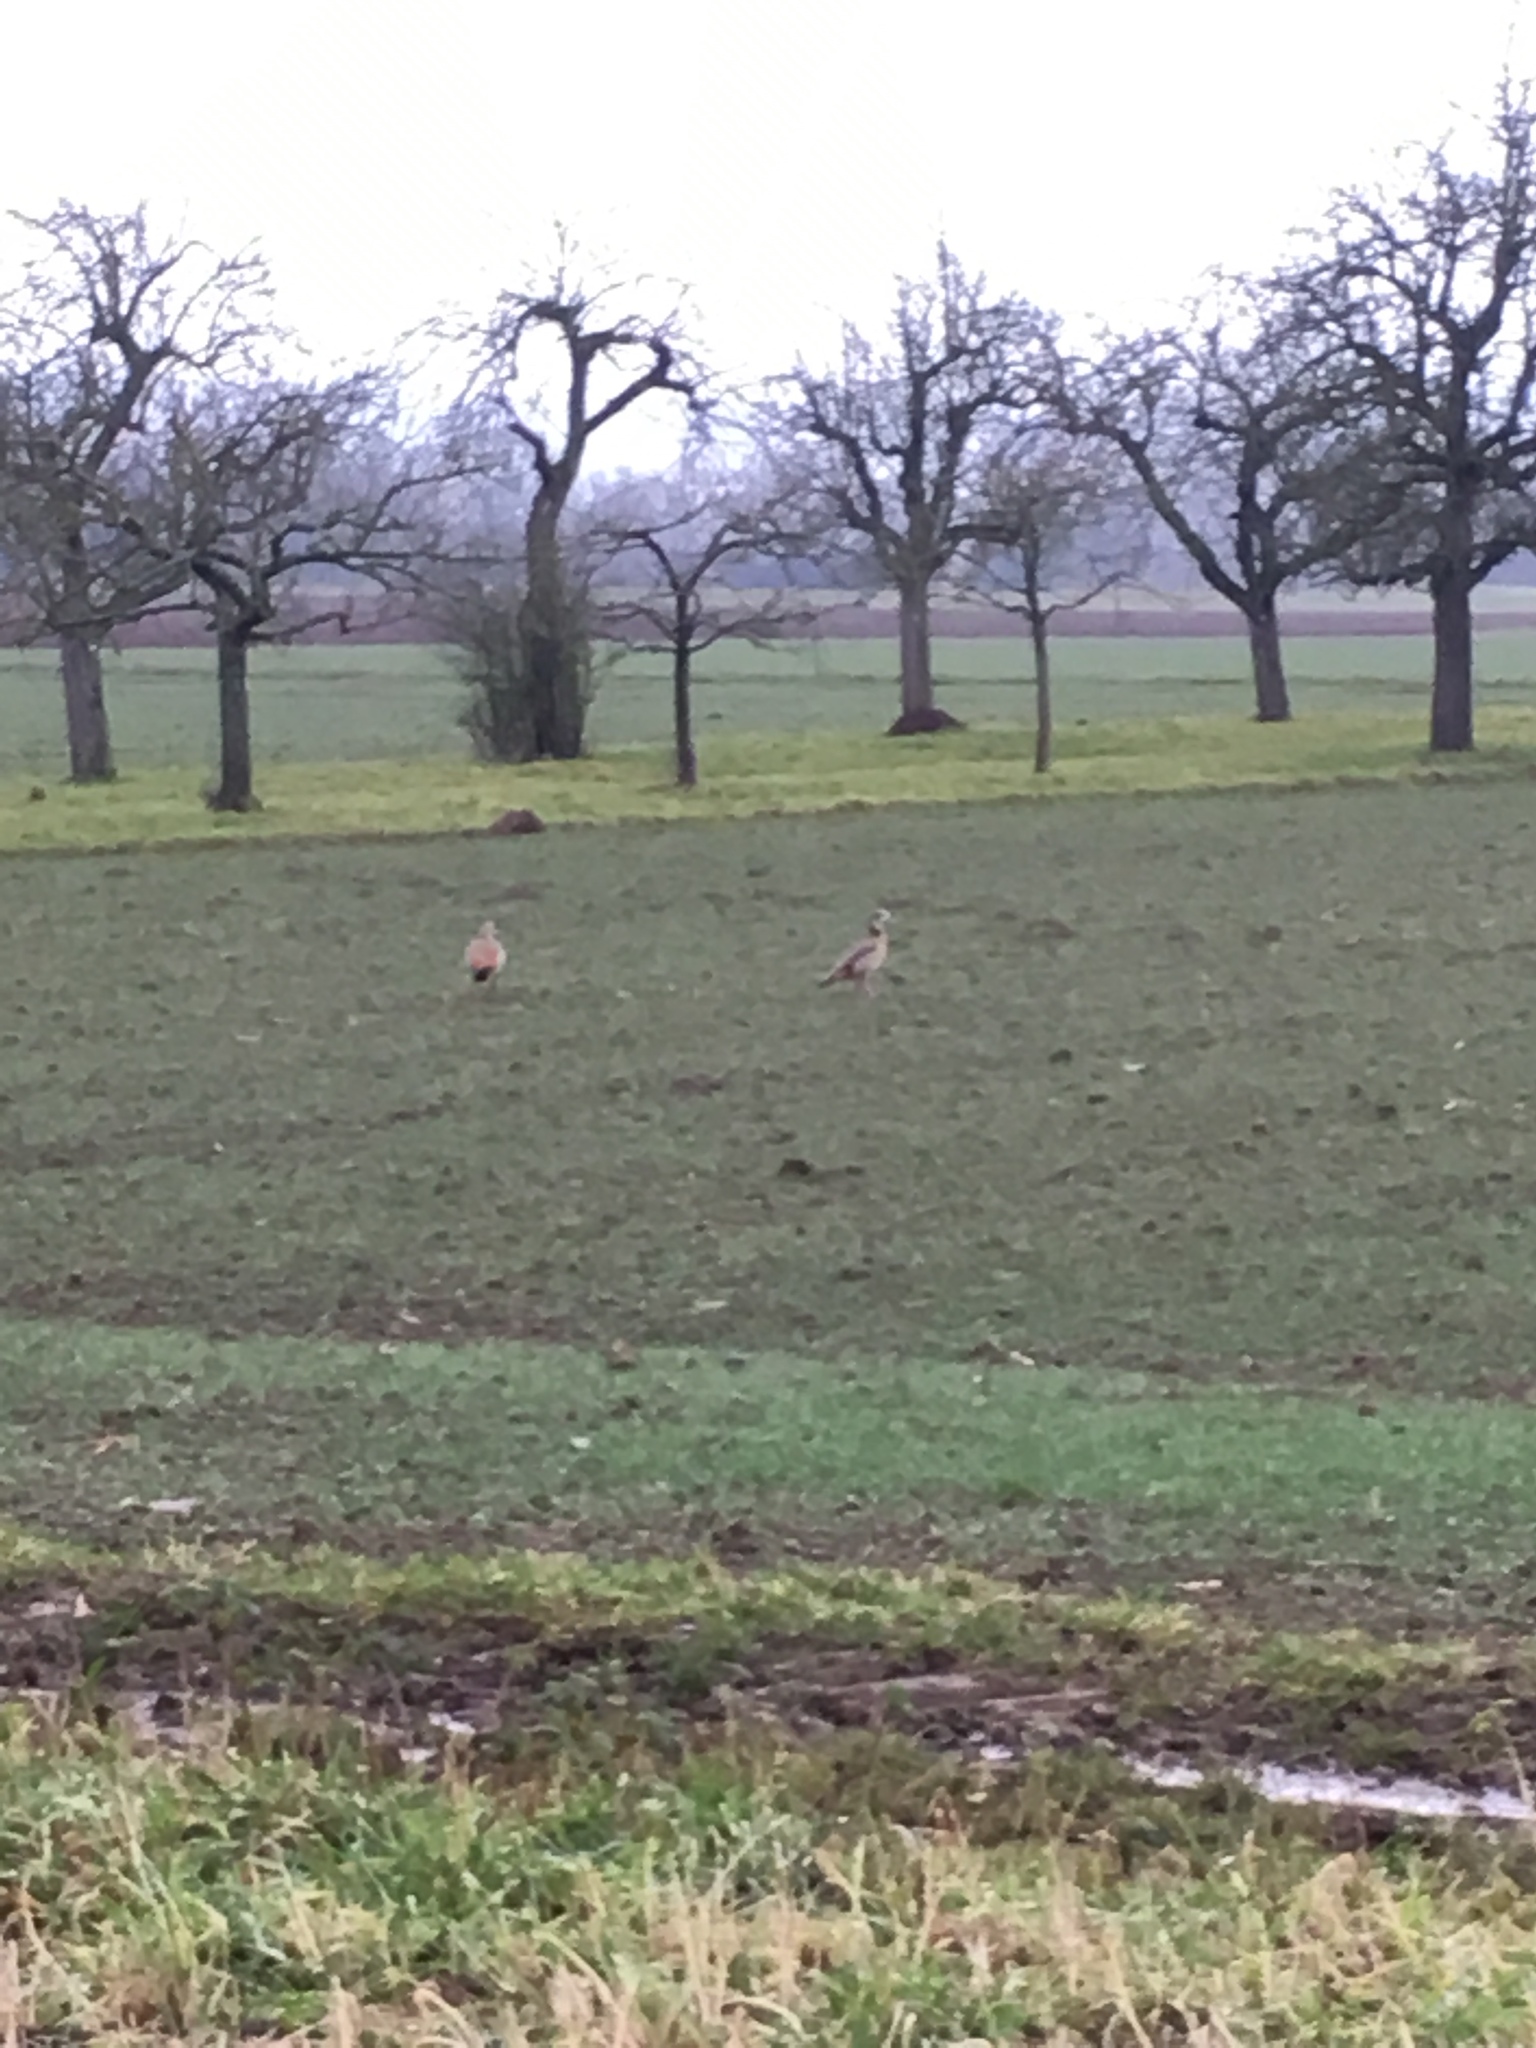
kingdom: Animalia
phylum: Chordata
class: Aves
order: Anseriformes
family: Anatidae
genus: Alopochen
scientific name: Alopochen aegyptiaca
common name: Egyptian goose
